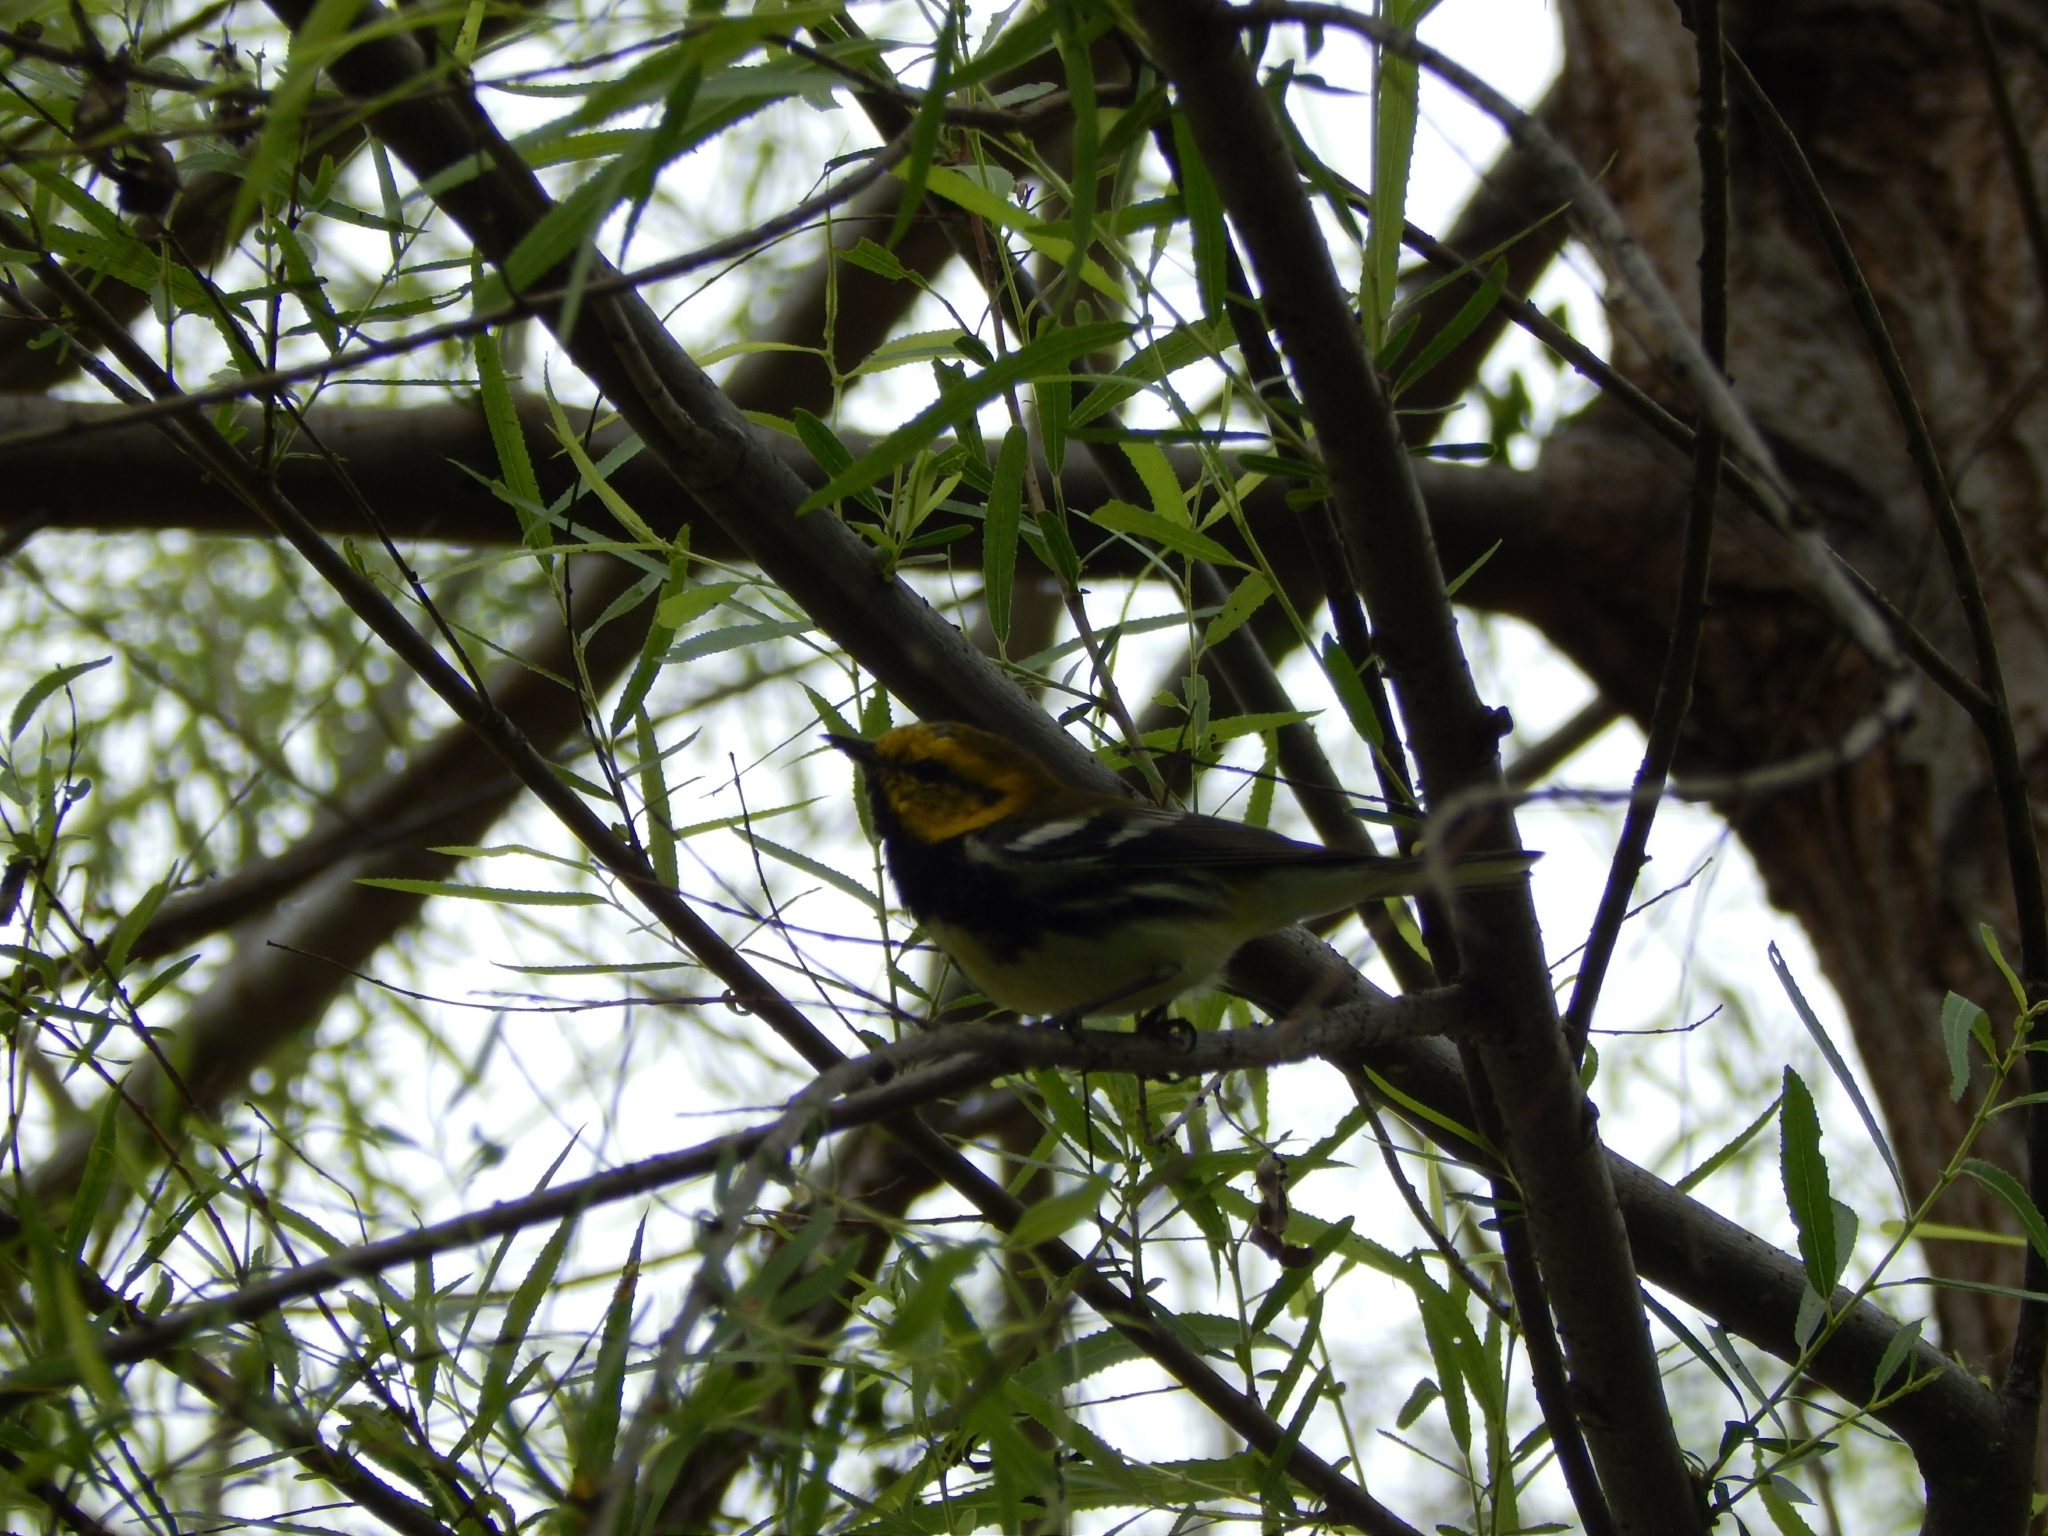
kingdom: Animalia
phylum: Chordata
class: Aves
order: Passeriformes
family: Parulidae
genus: Setophaga
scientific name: Setophaga virens
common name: Black-throated green warbler
